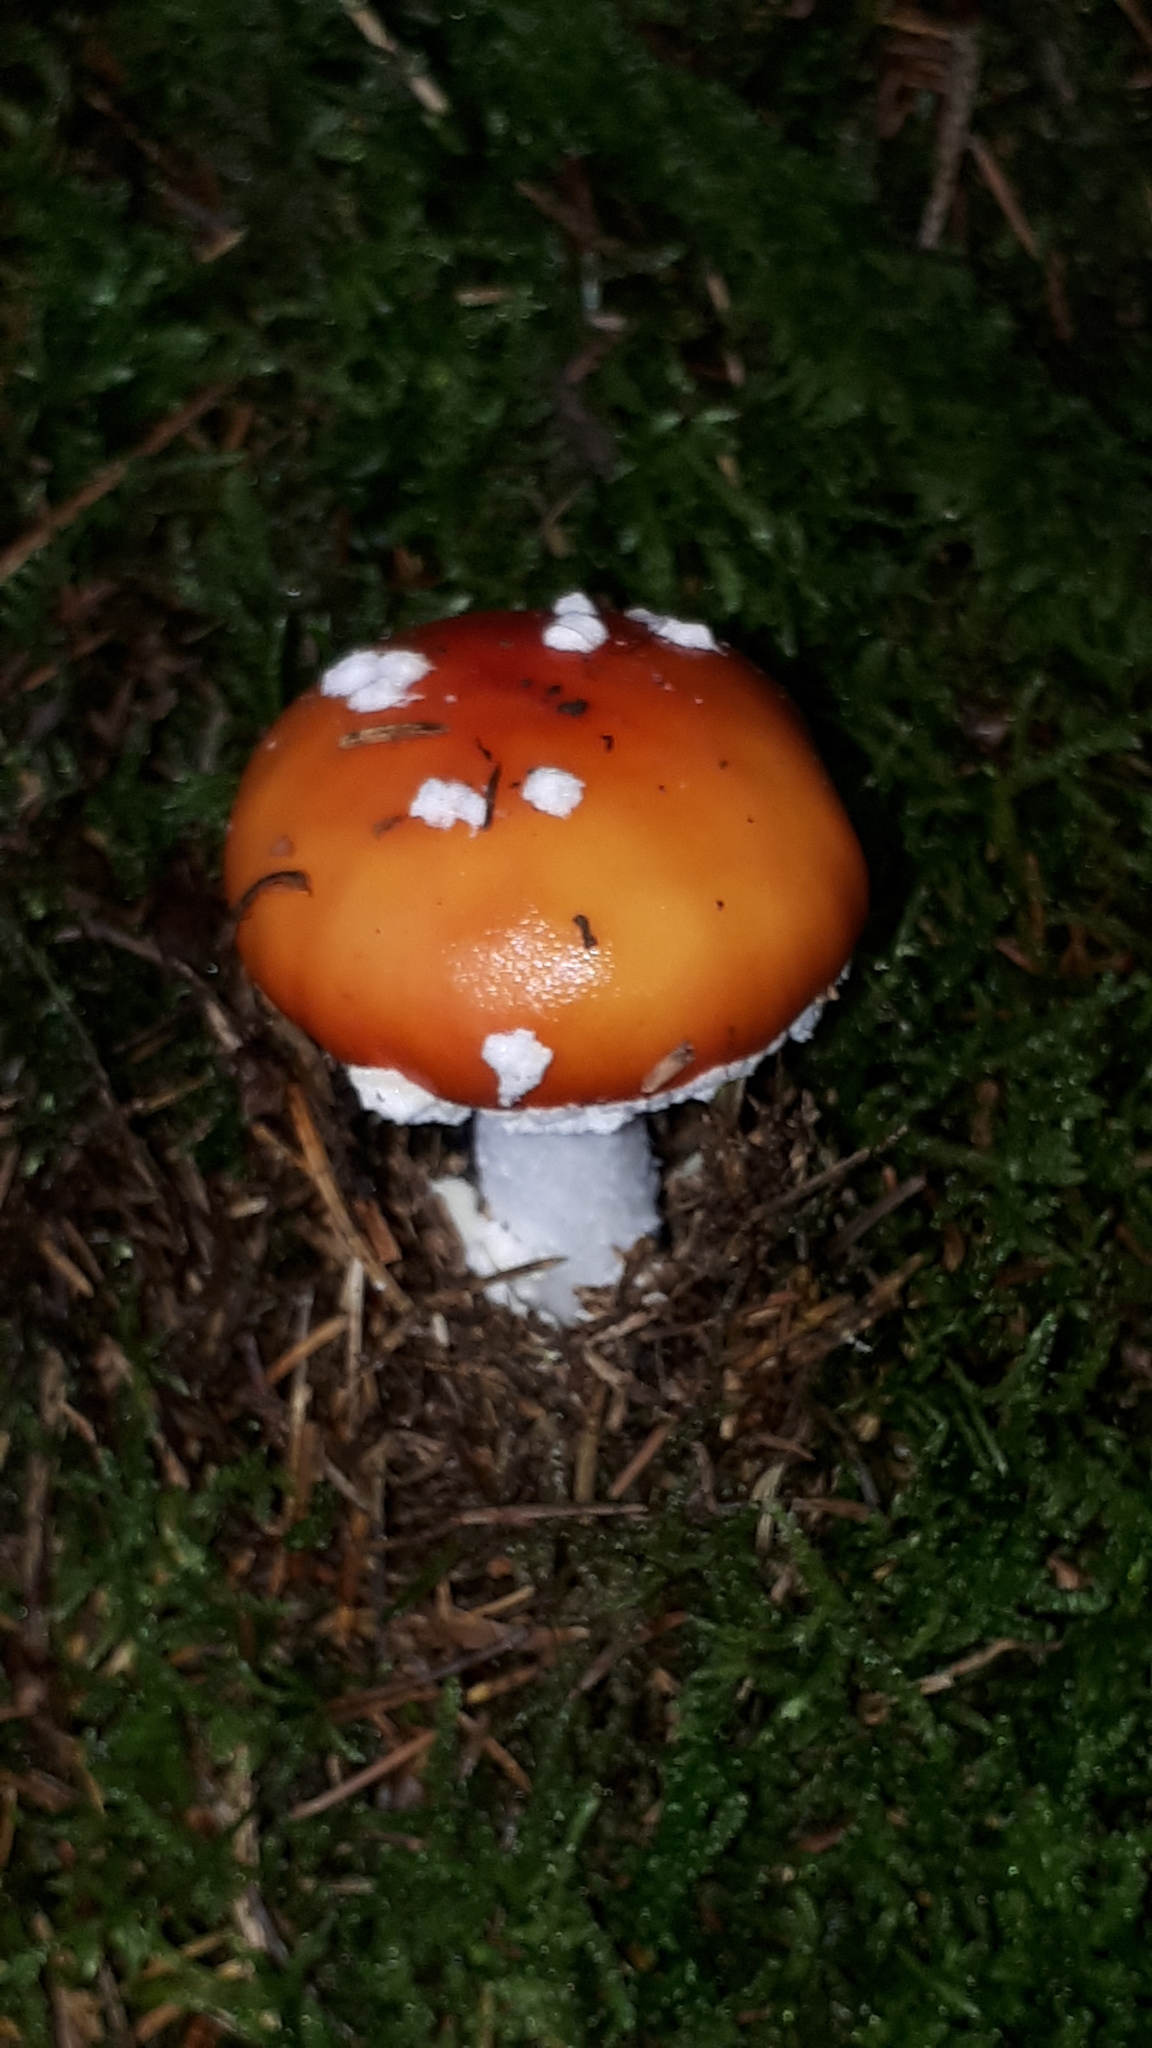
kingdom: Fungi
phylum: Basidiomycota
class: Agaricomycetes
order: Agaricales
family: Amanitaceae
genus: Amanita
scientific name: Amanita muscaria
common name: Fly agaric
